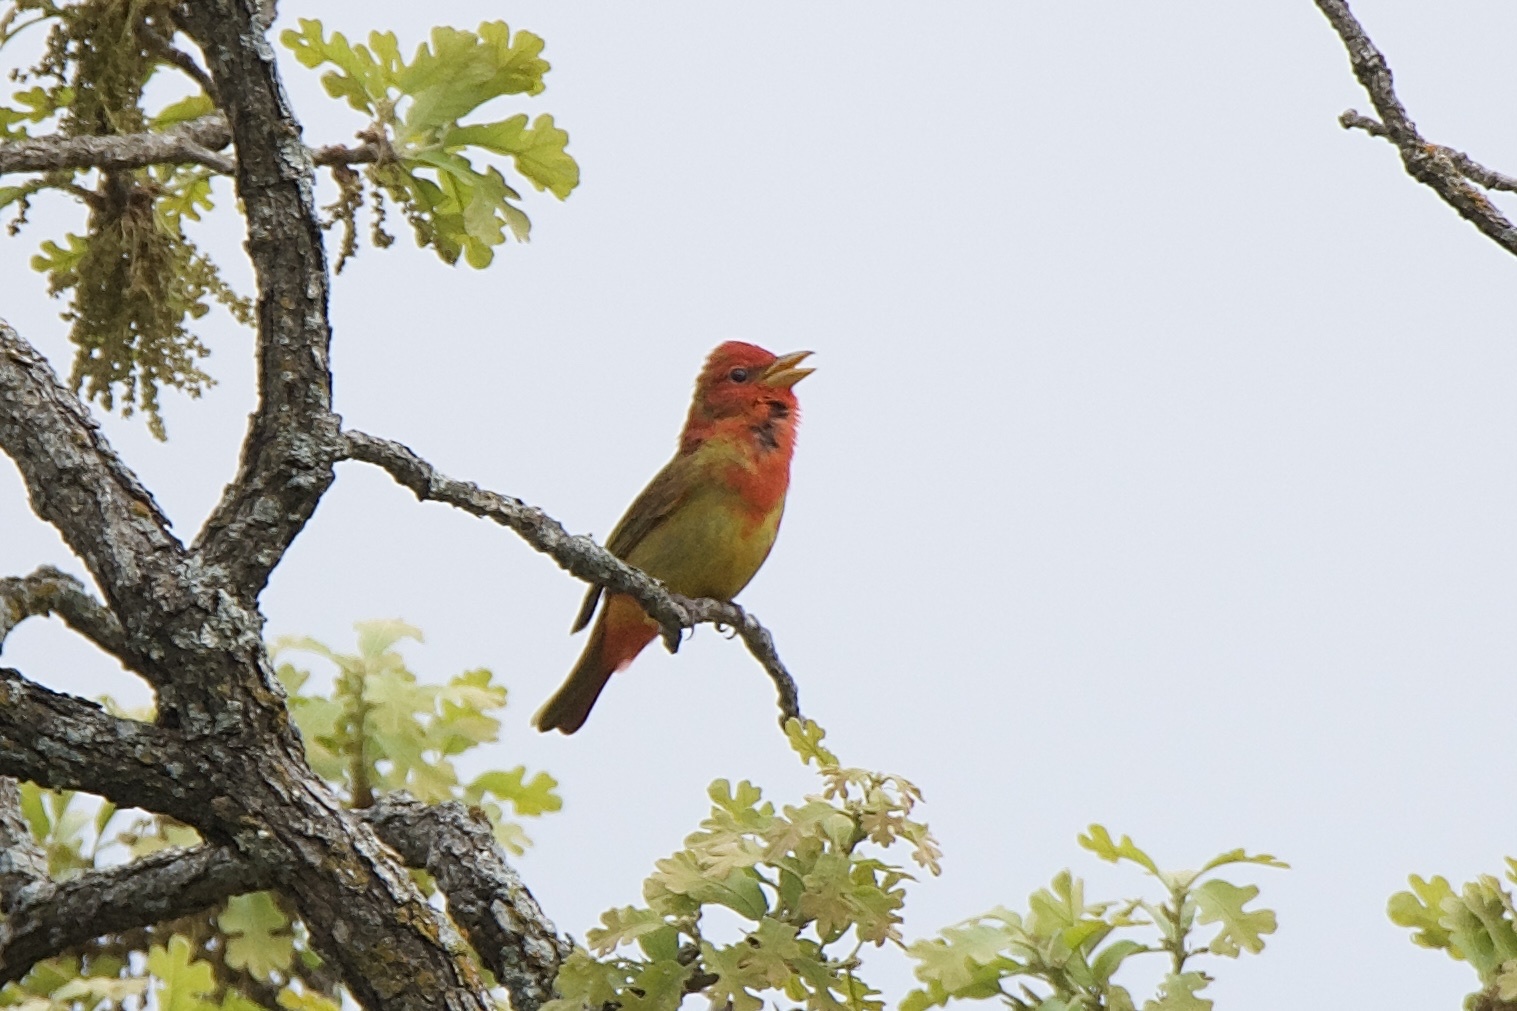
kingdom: Animalia
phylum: Chordata
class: Aves
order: Passeriformes
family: Cardinalidae
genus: Piranga
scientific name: Piranga rubra
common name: Summer tanager
